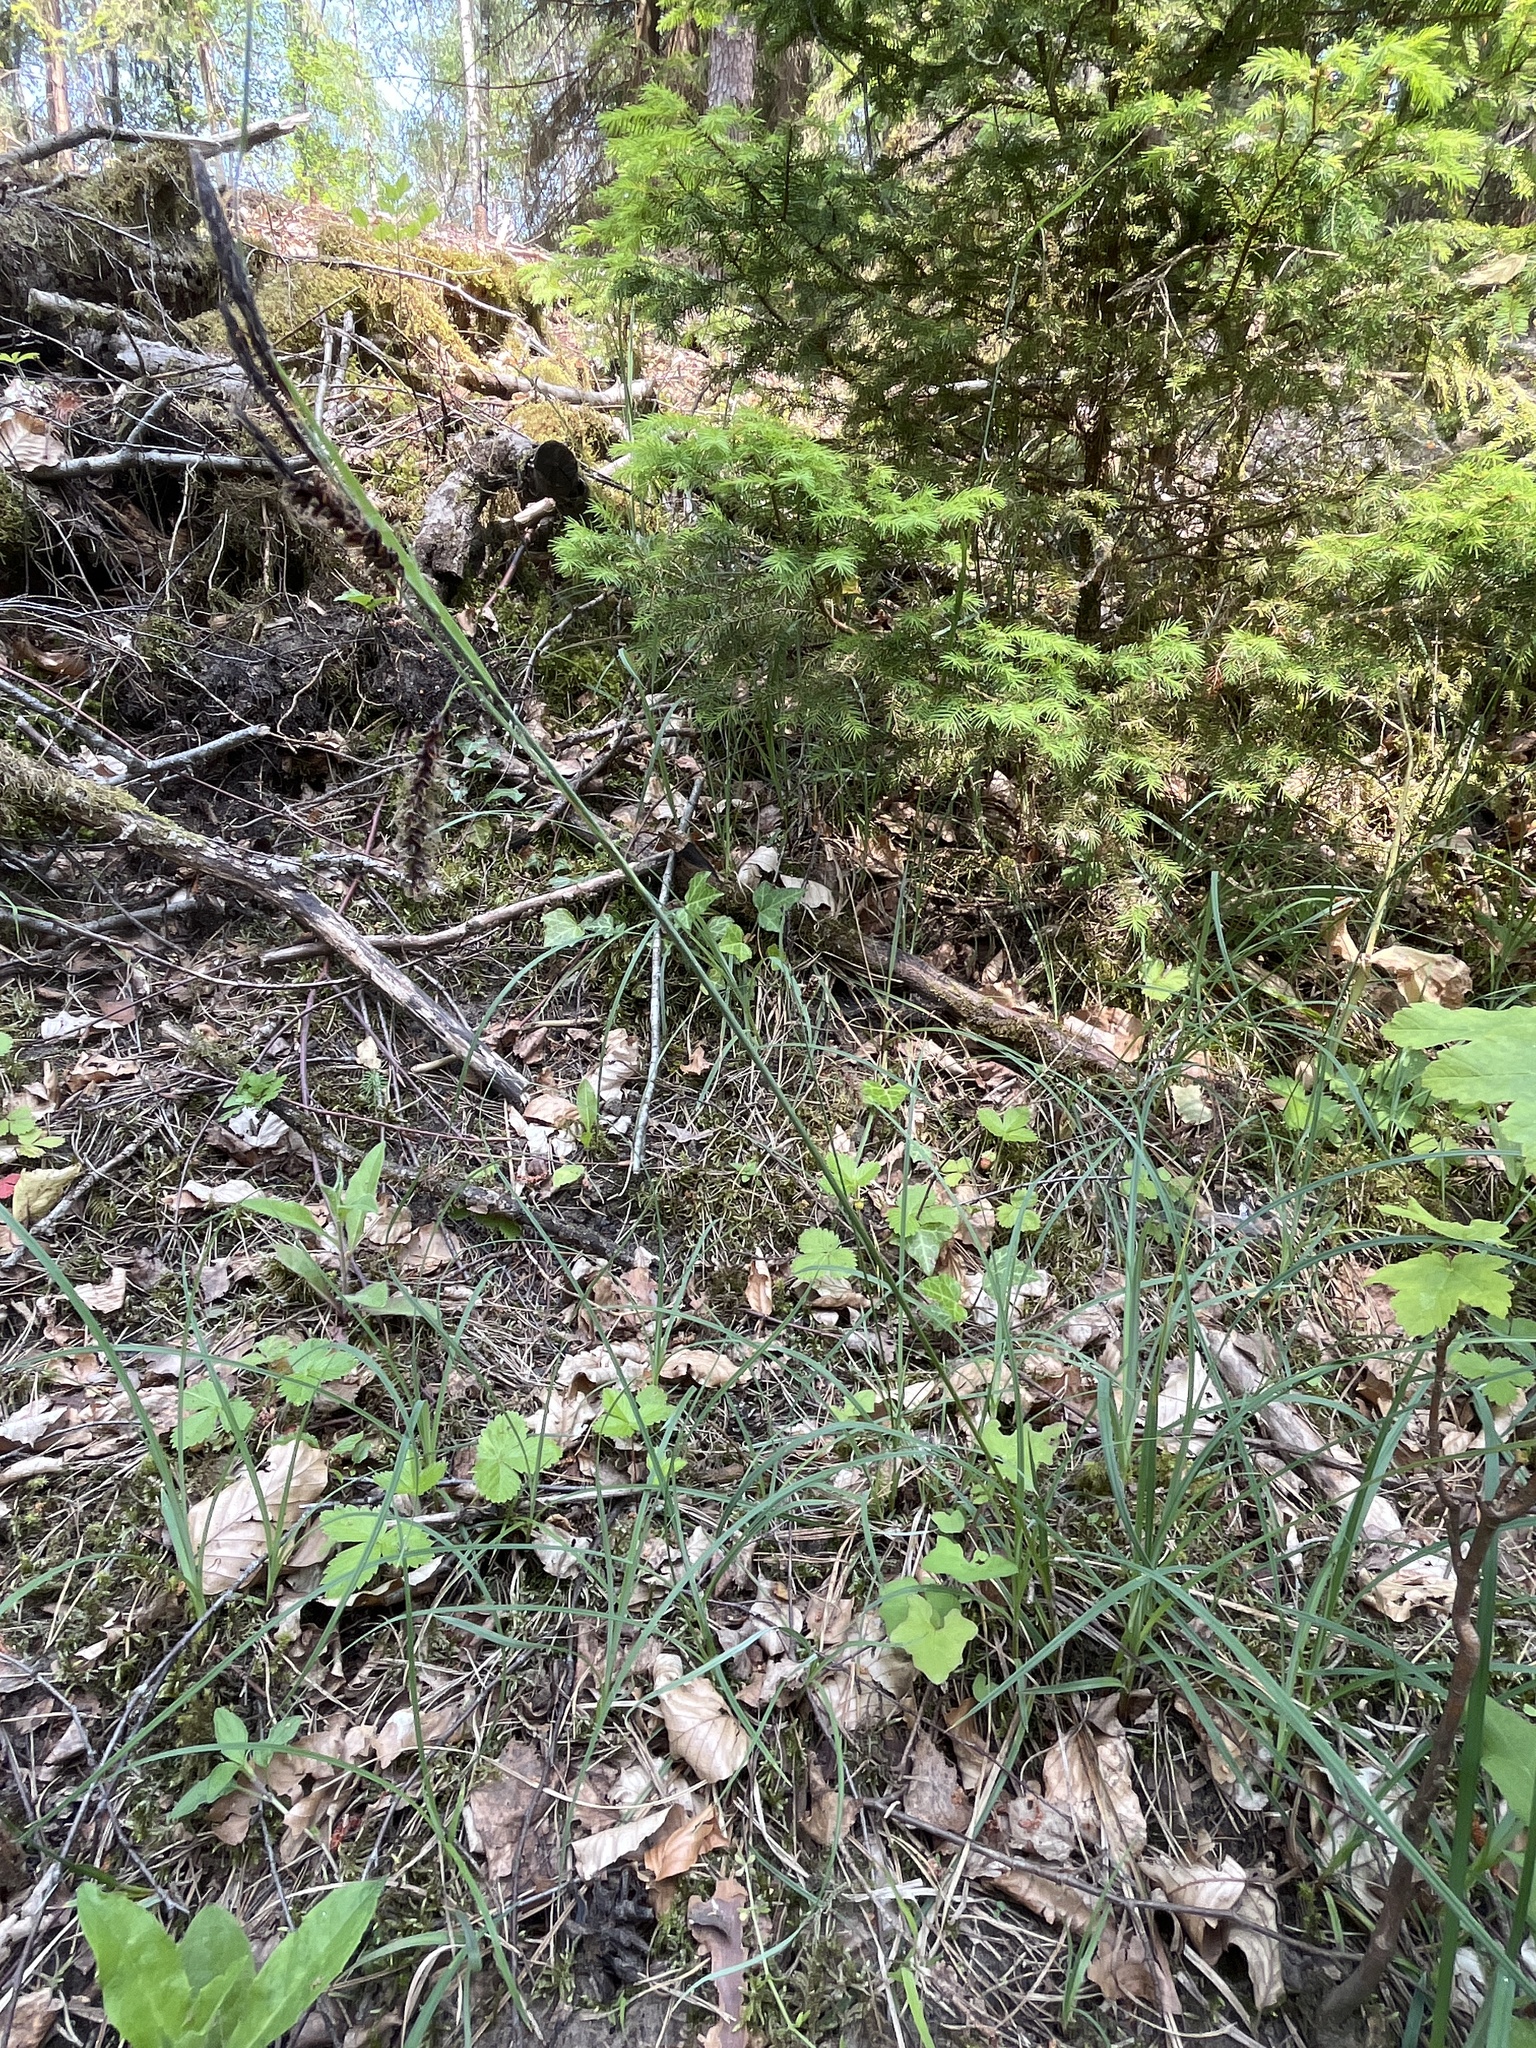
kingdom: Plantae
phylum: Tracheophyta
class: Liliopsida
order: Poales
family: Cyperaceae
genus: Carex
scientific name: Carex flacca
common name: Glaucous sedge
